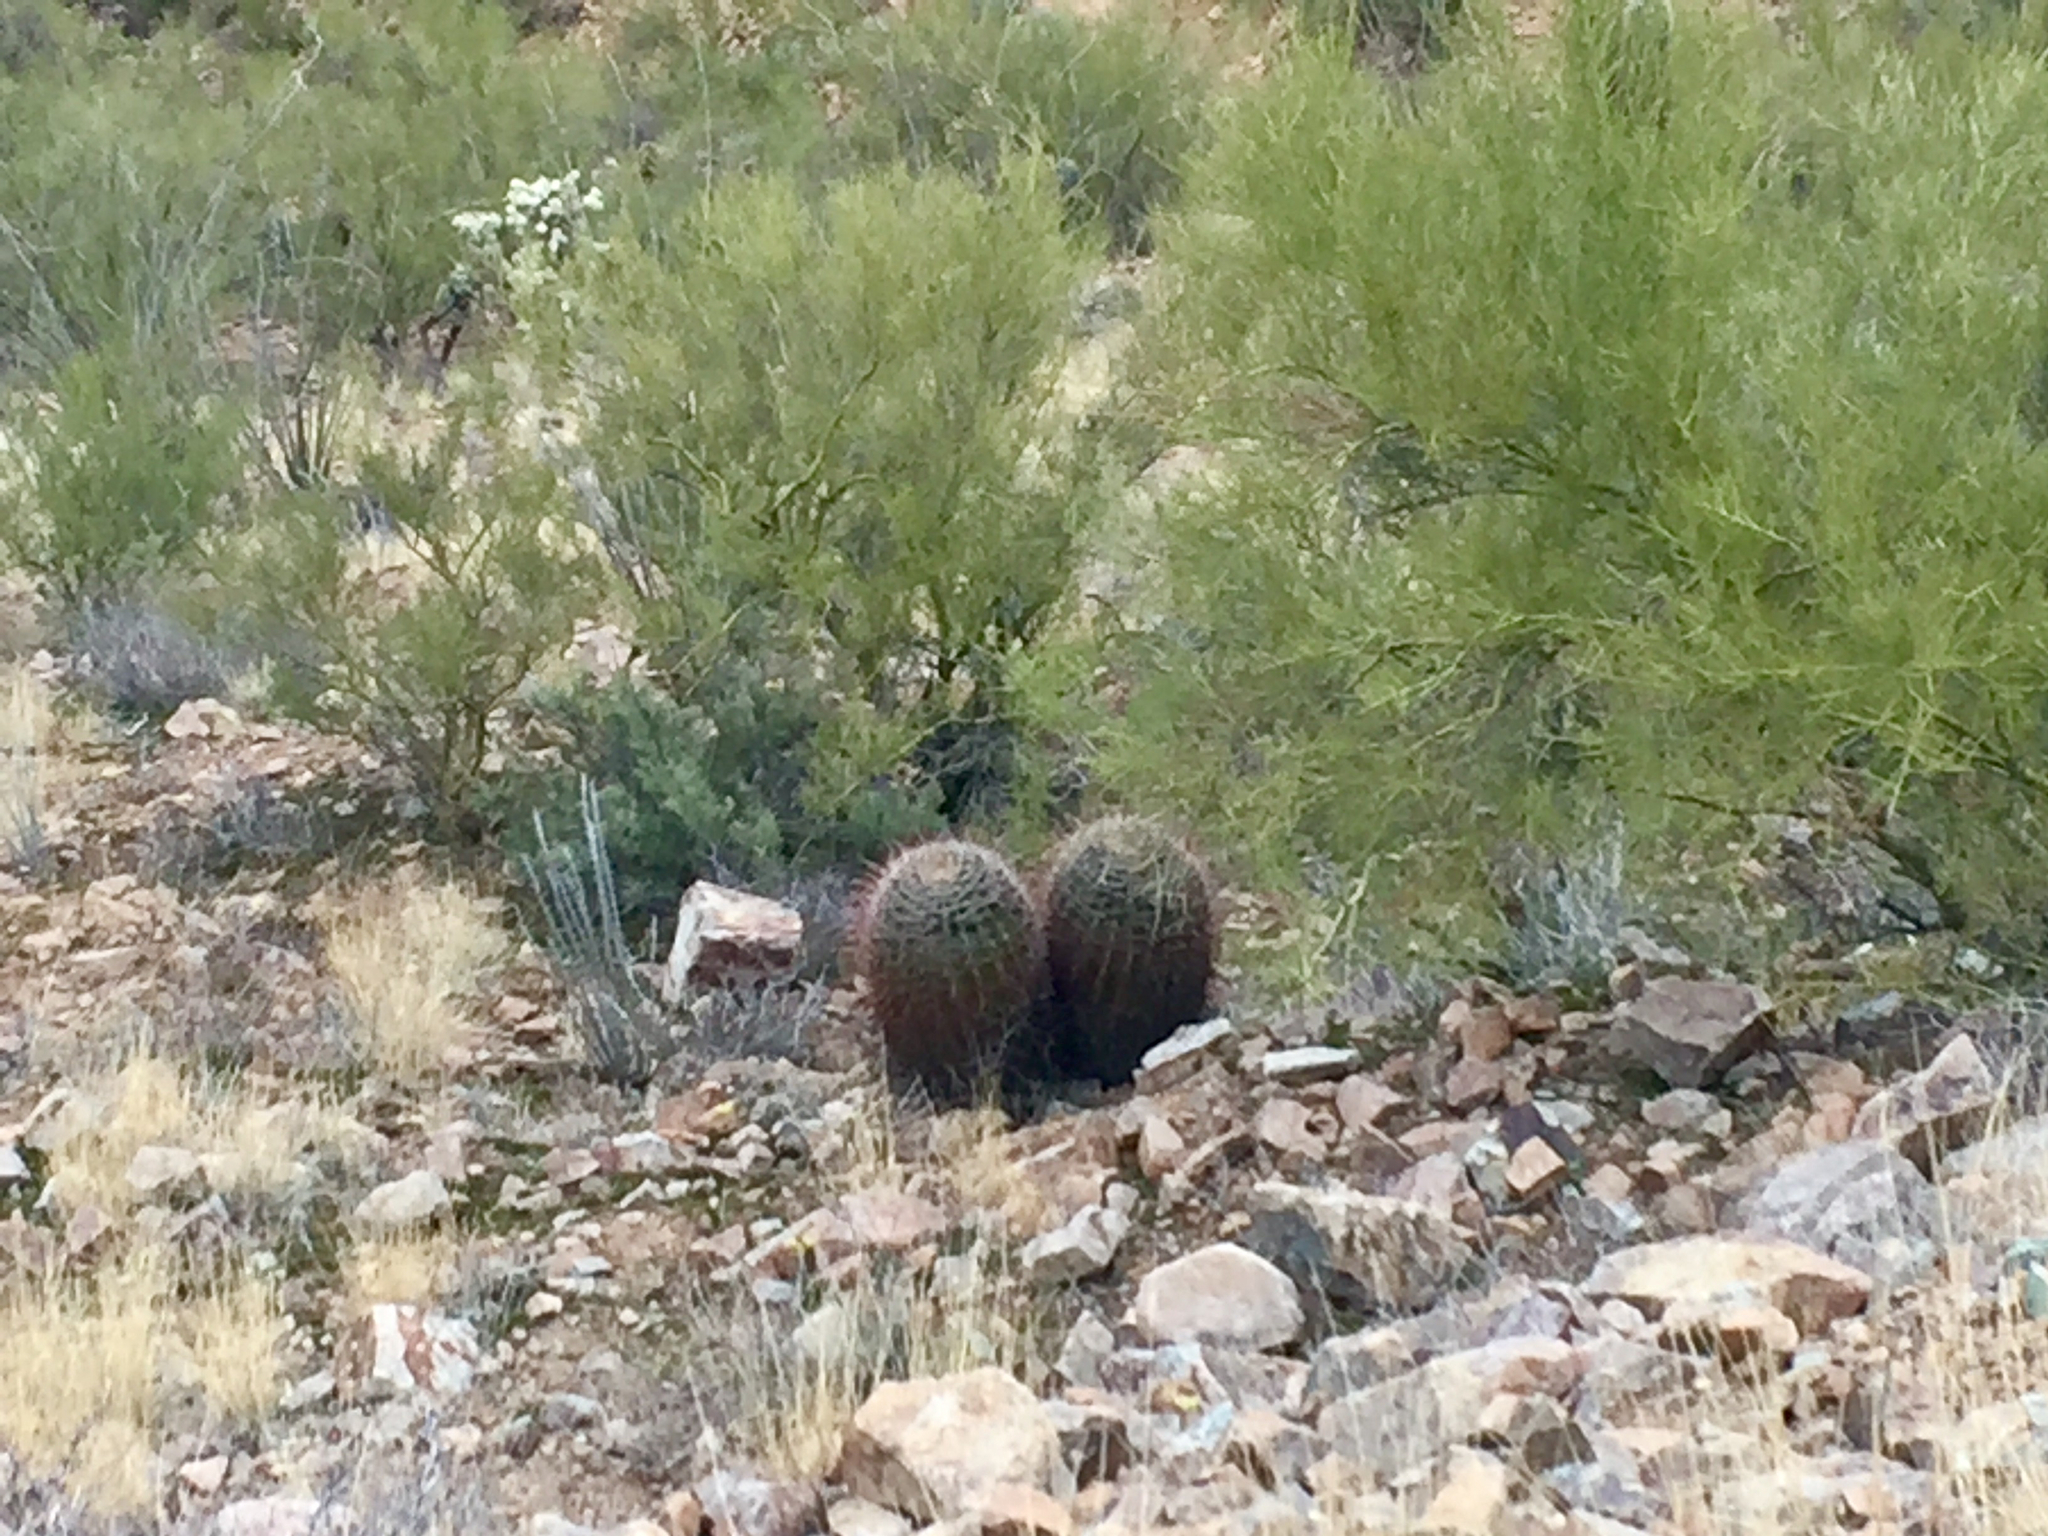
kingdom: Plantae
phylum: Tracheophyta
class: Magnoliopsida
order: Caryophyllales
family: Cactaceae
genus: Ferocactus
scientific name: Ferocactus wislizeni
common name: Candy barrel cactus
